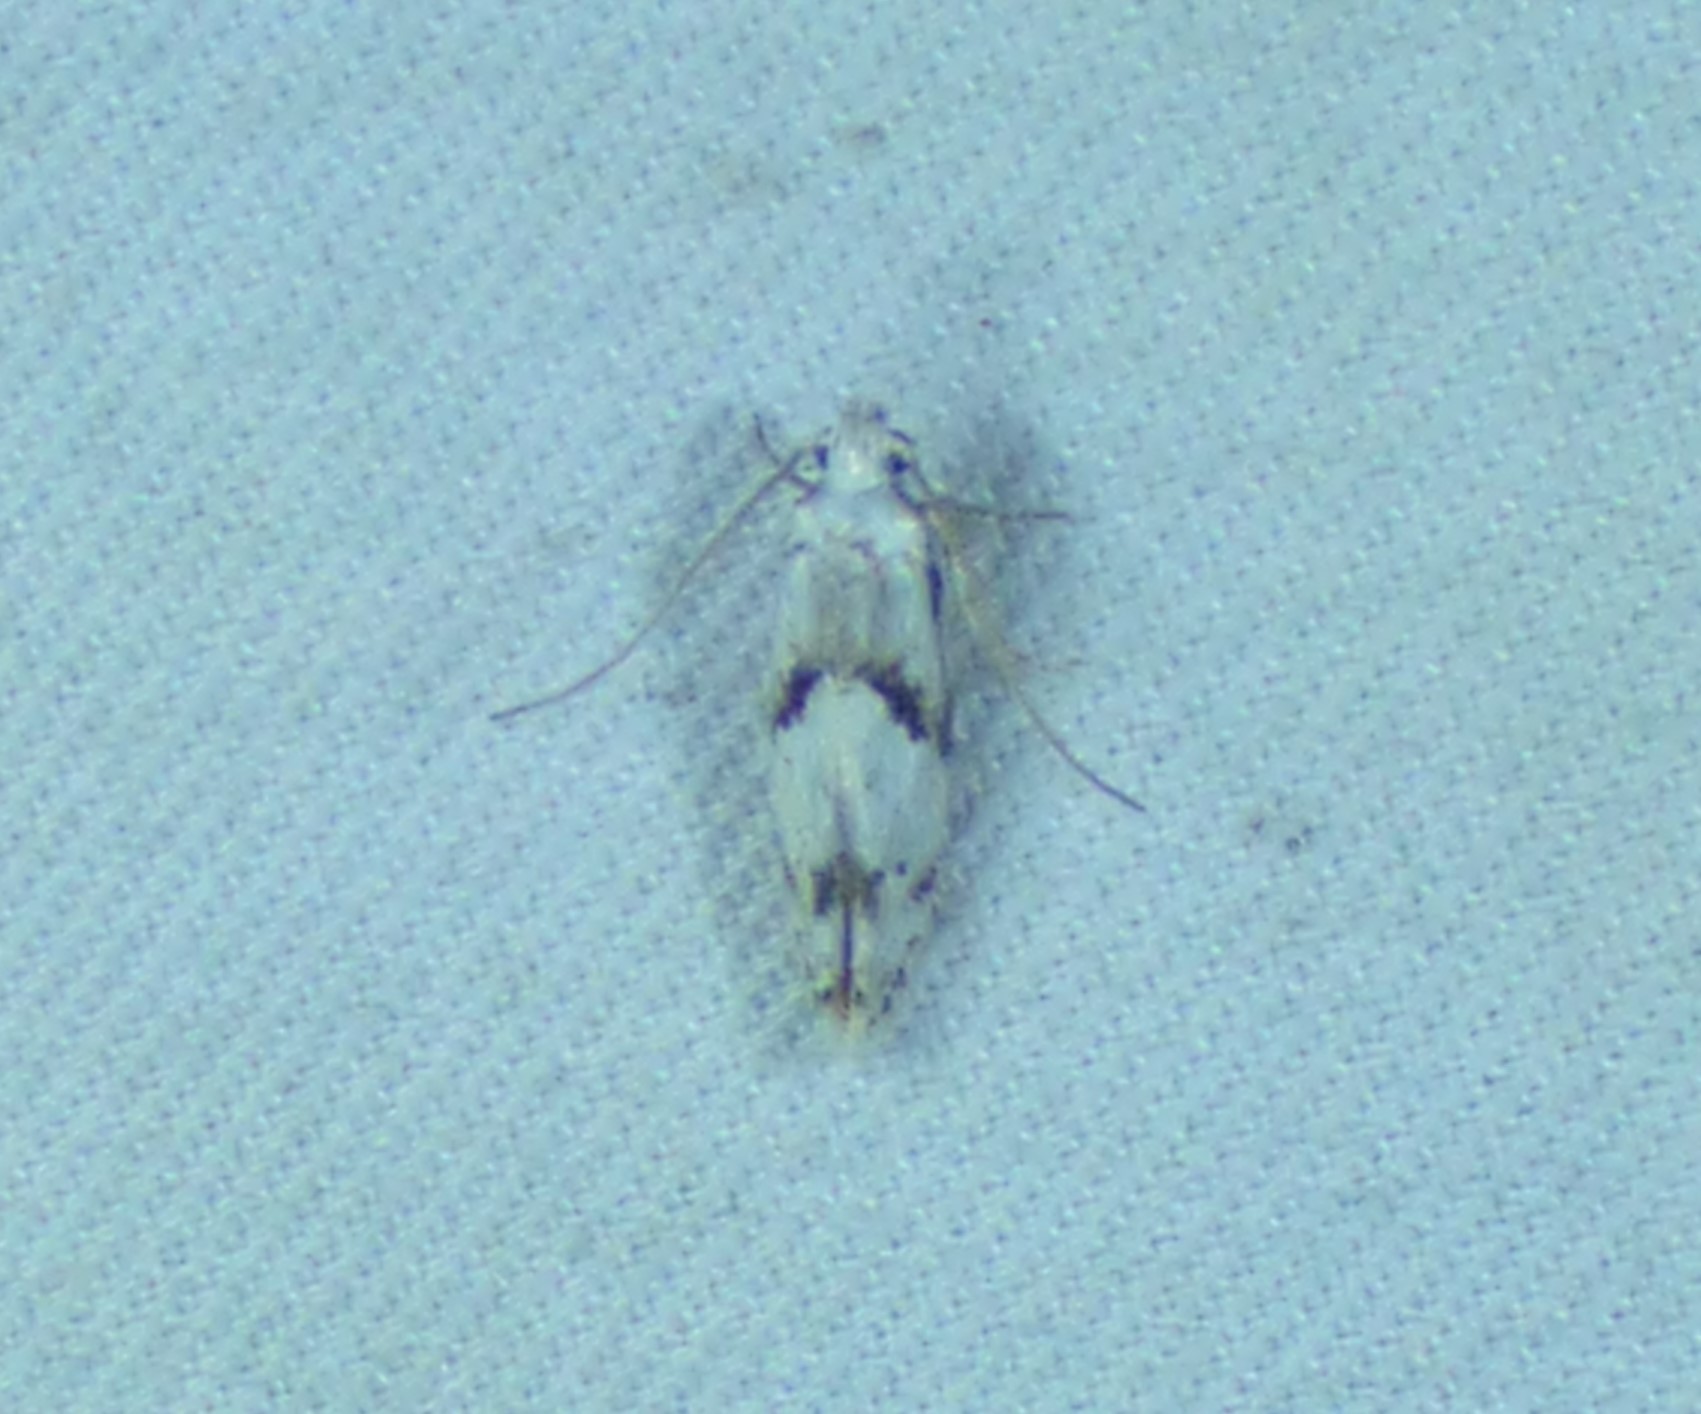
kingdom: Animalia
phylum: Arthropoda
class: Insecta
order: Lepidoptera
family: Gelechiidae
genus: Arogalea
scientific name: Arogalea cristifasciella
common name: White stripe-backed moth
